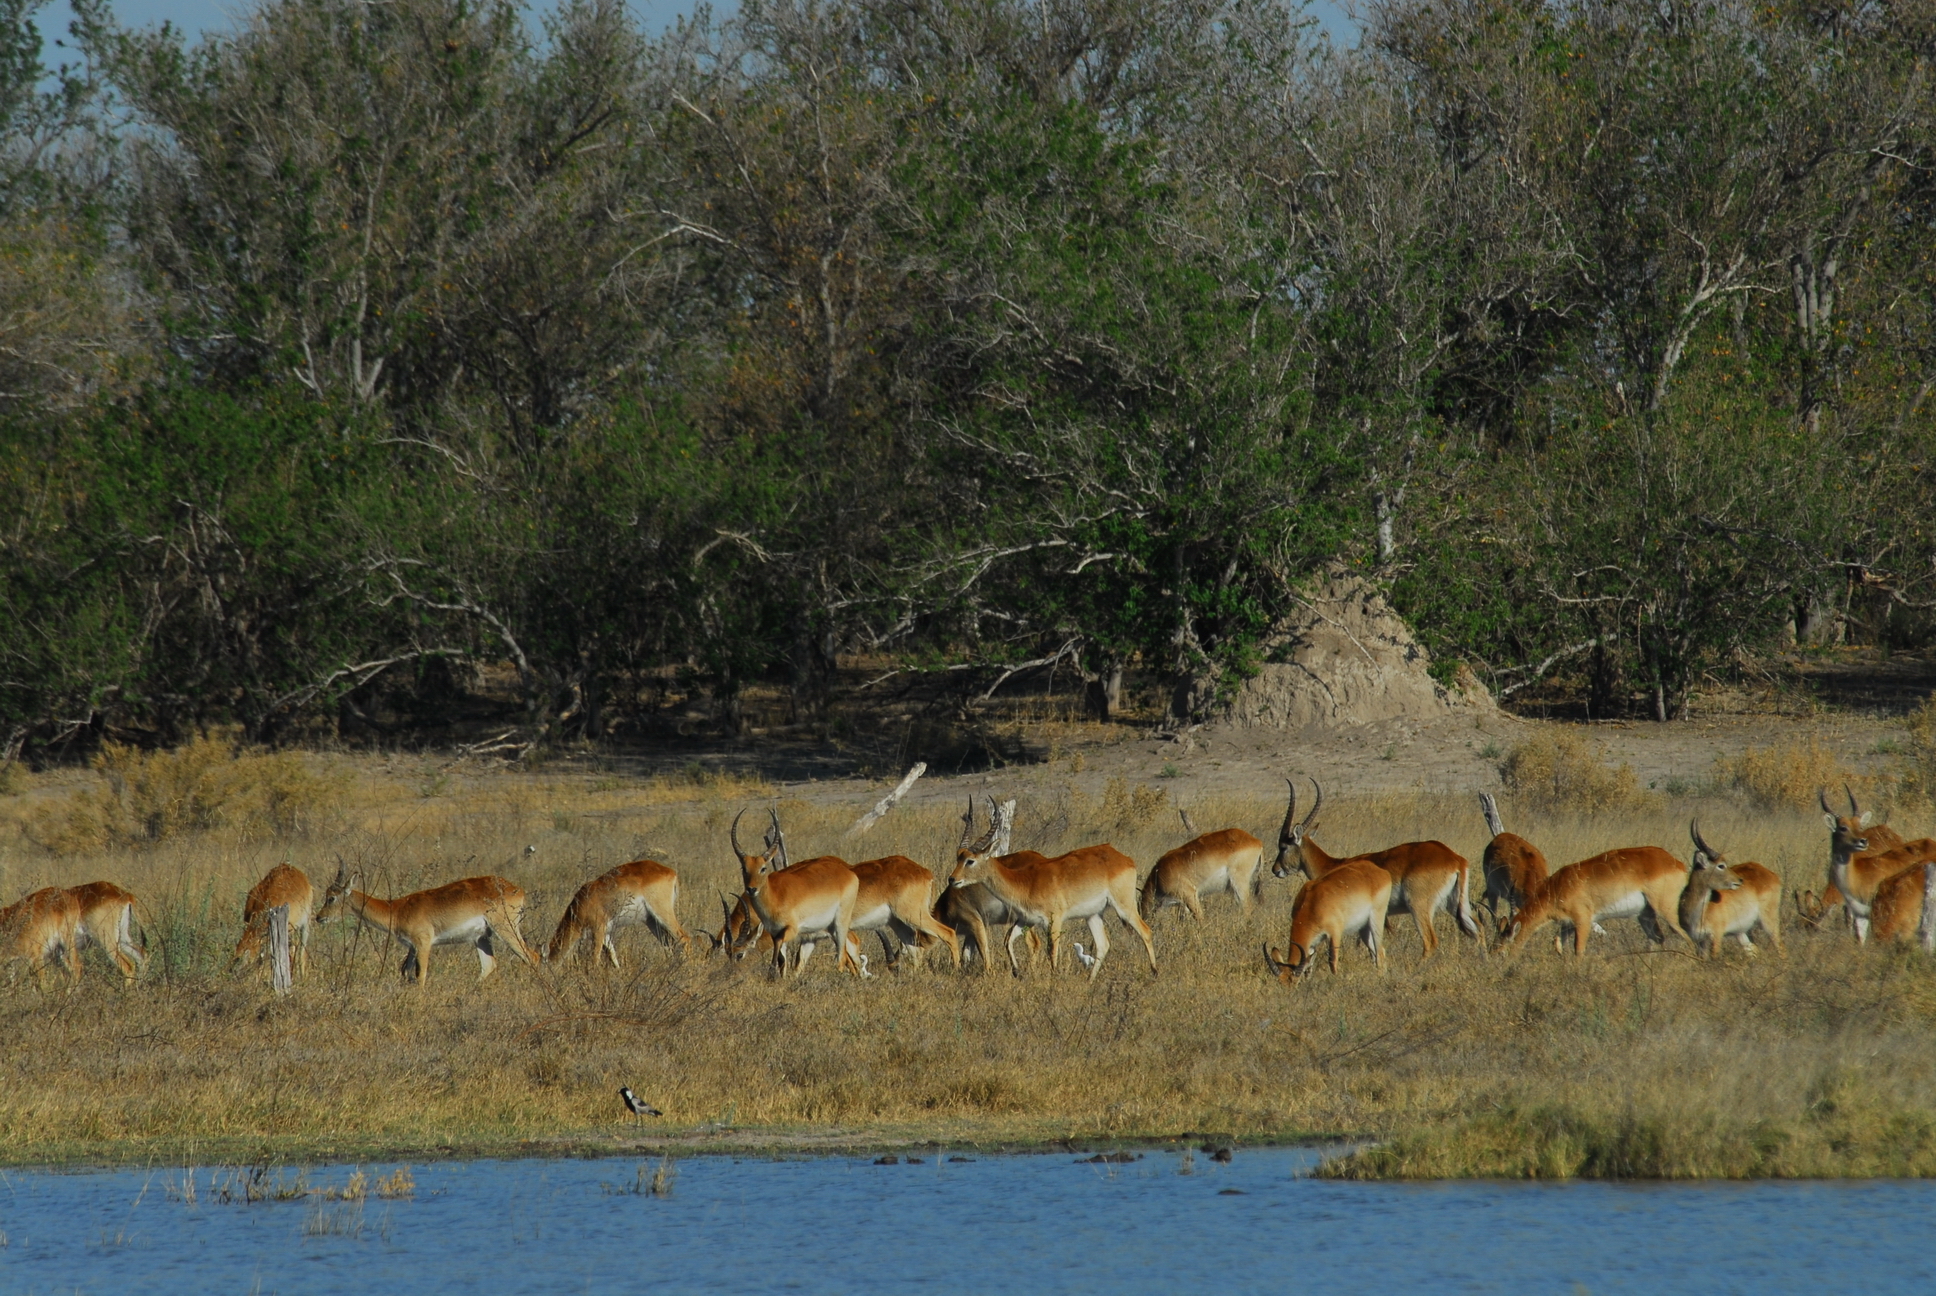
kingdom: Animalia
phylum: Chordata
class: Mammalia
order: Artiodactyla
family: Bovidae
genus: Kobus
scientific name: Kobus leche
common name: Lechwe
